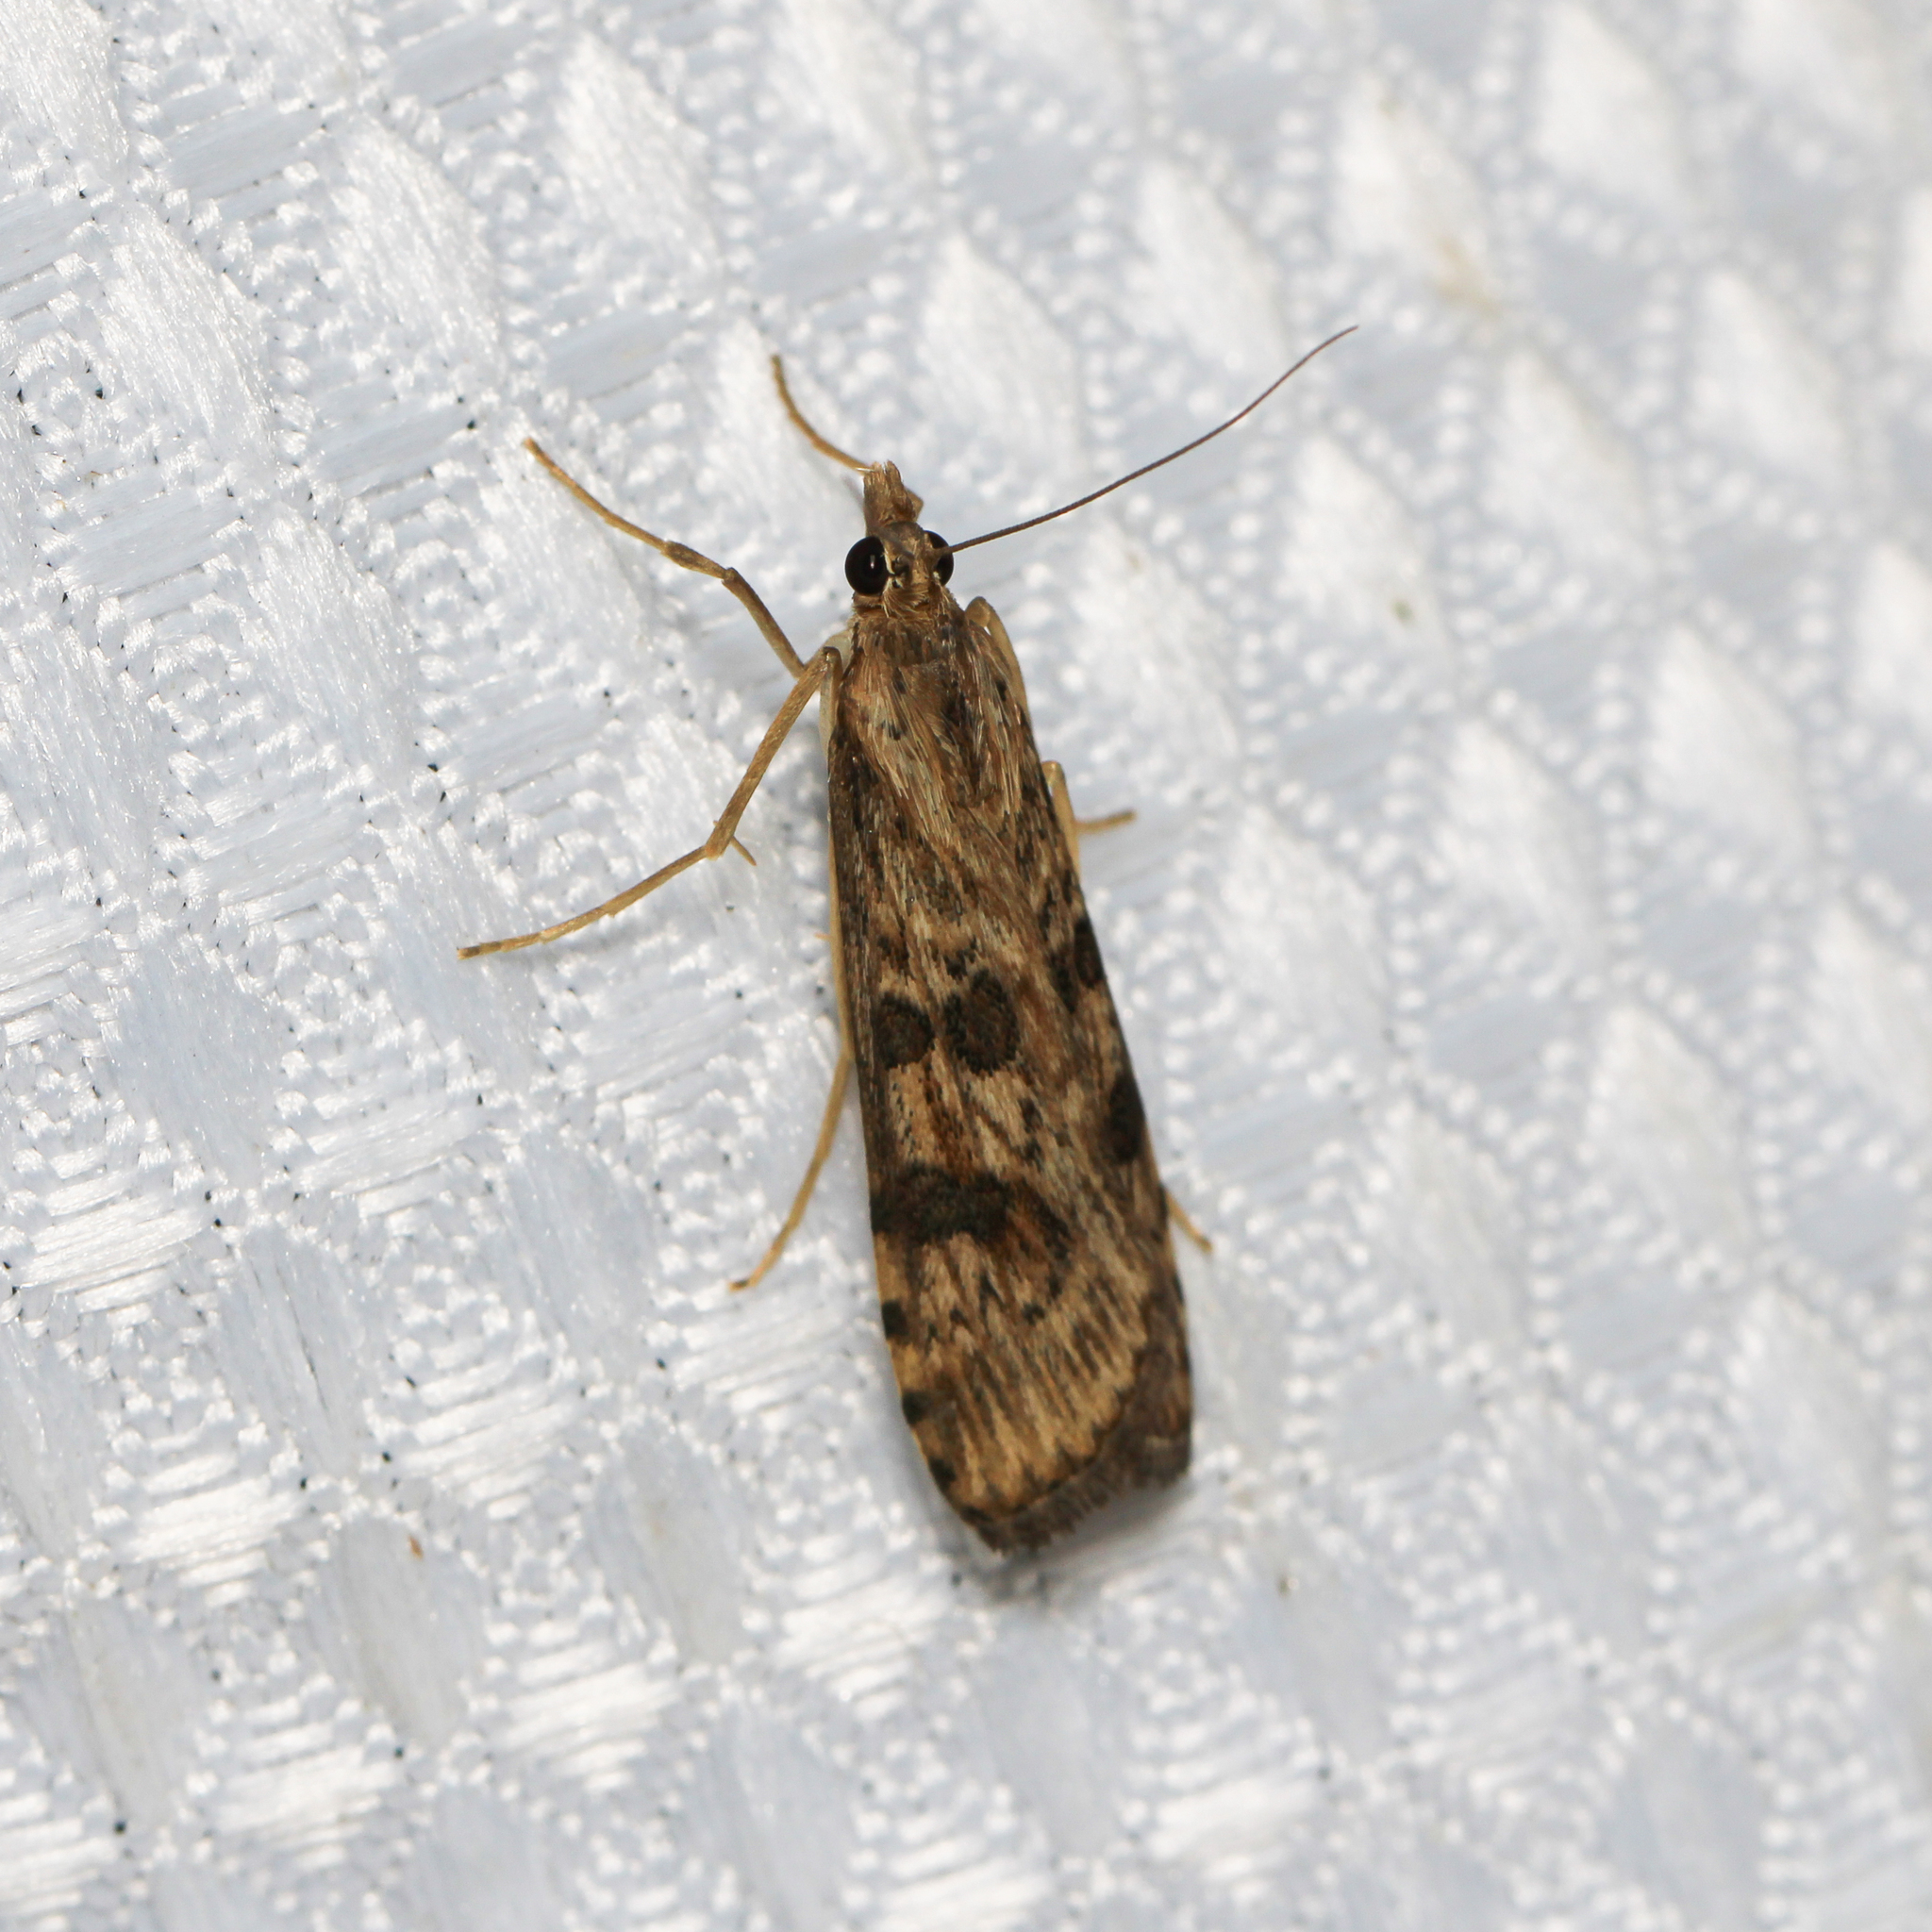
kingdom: Animalia
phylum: Arthropoda
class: Insecta
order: Lepidoptera
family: Crambidae
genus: Nomophila
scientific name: Nomophila nearctica
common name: American rush veneer
